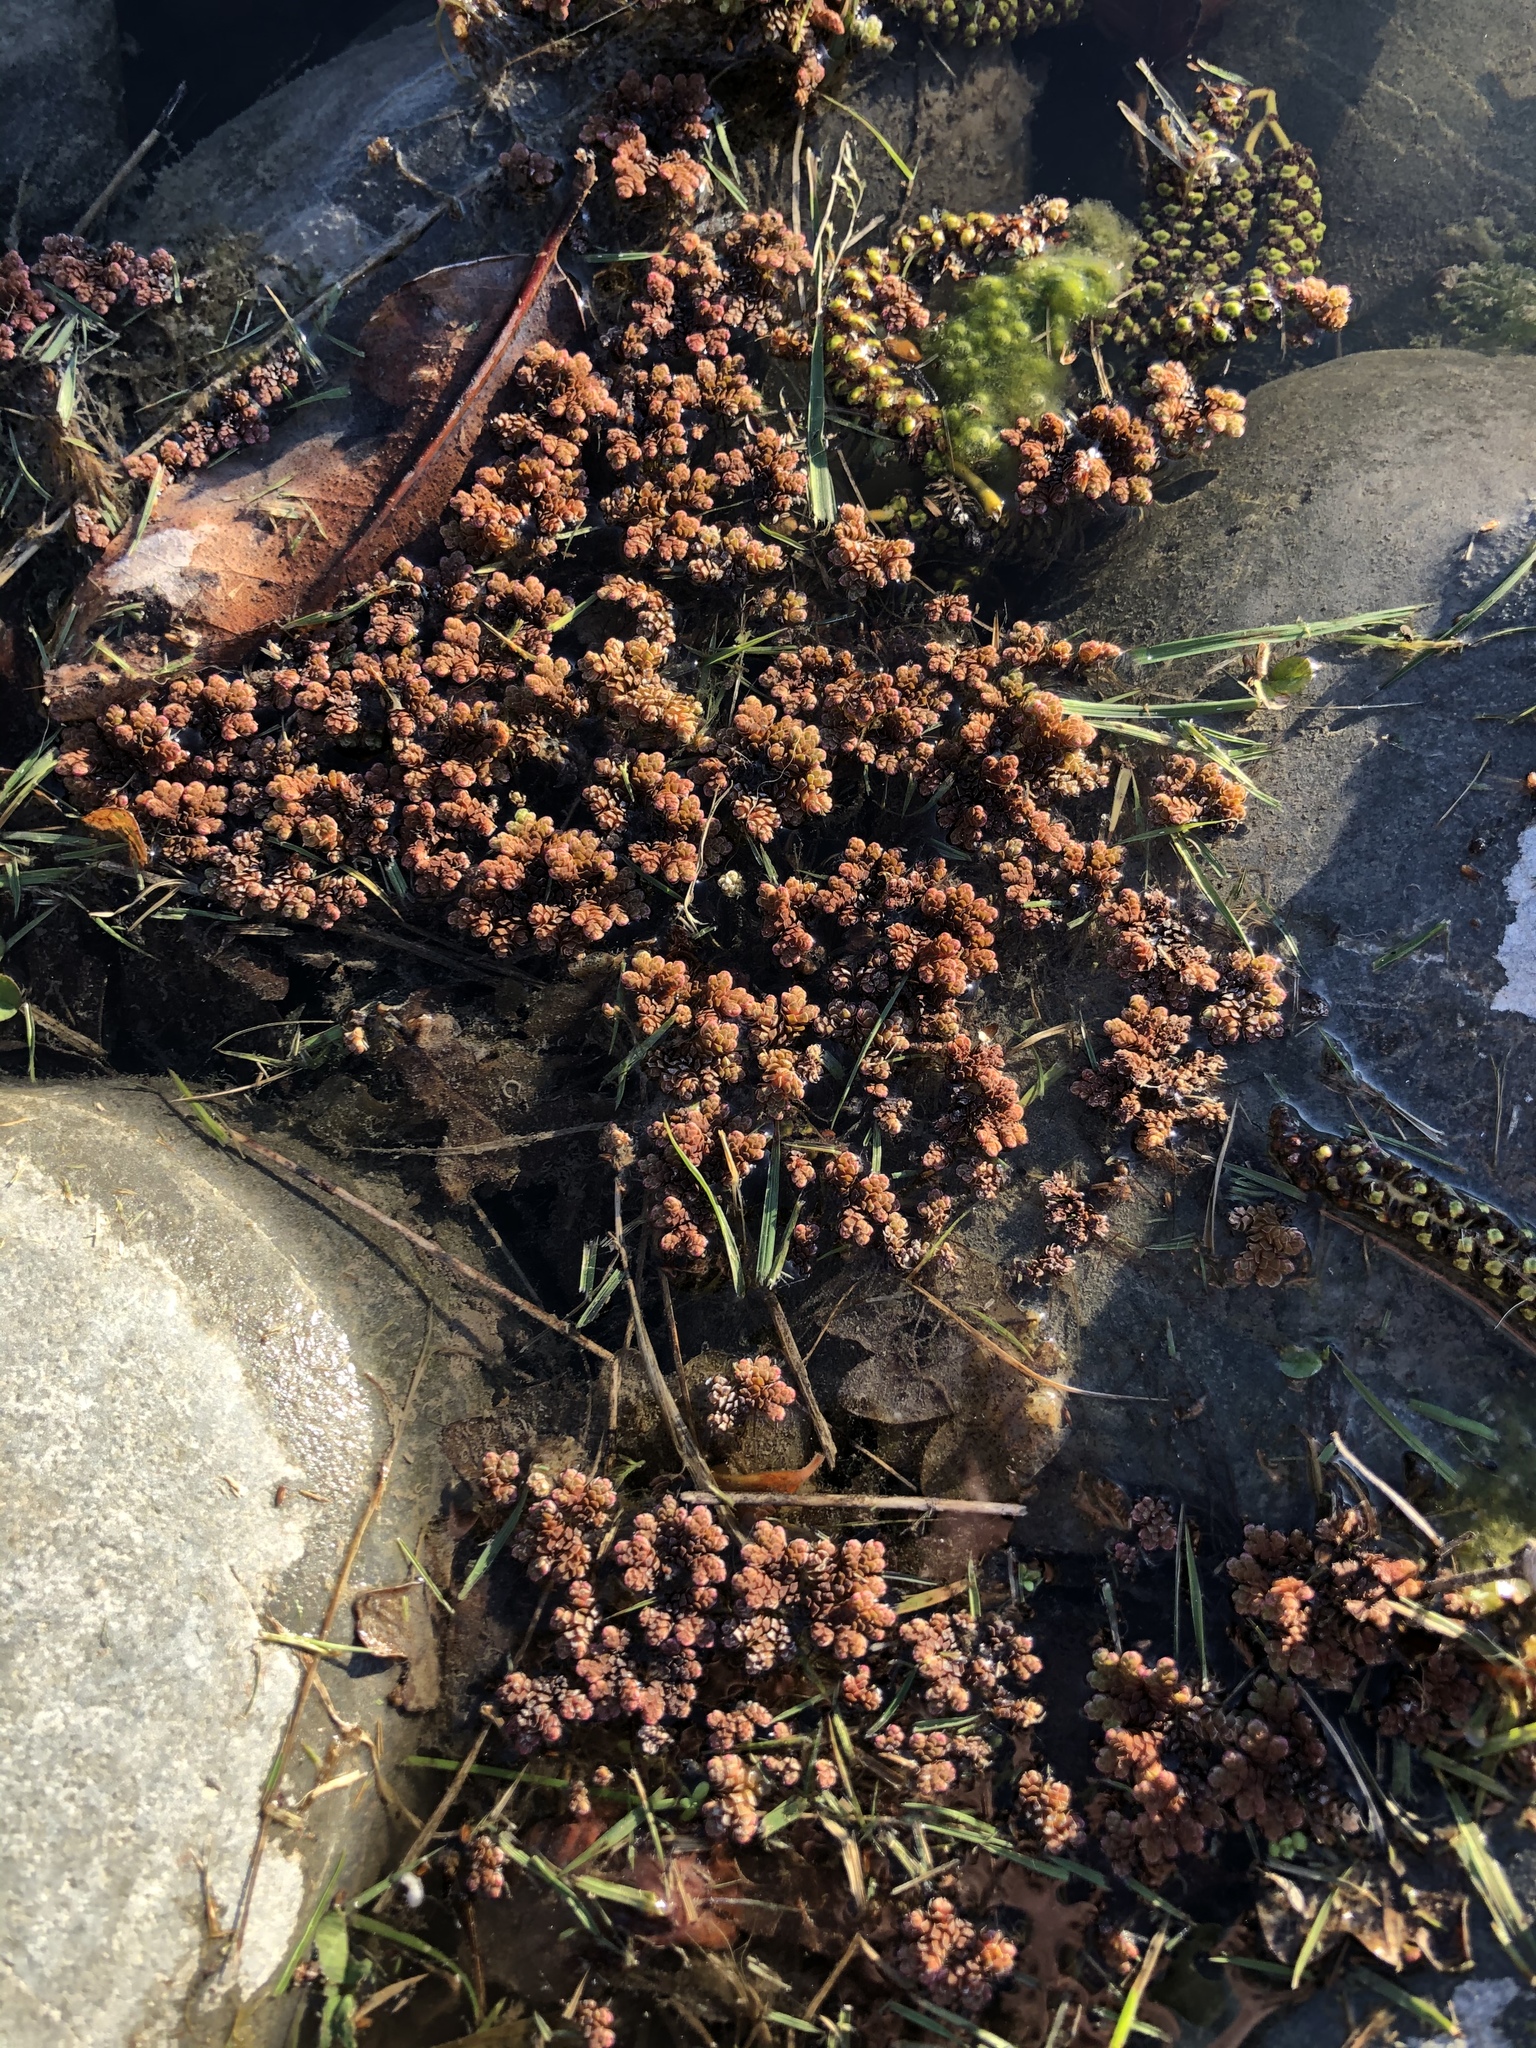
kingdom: Plantae
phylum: Tracheophyta
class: Polypodiopsida
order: Salviniales
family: Salviniaceae
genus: Azolla
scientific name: Azolla rubra
